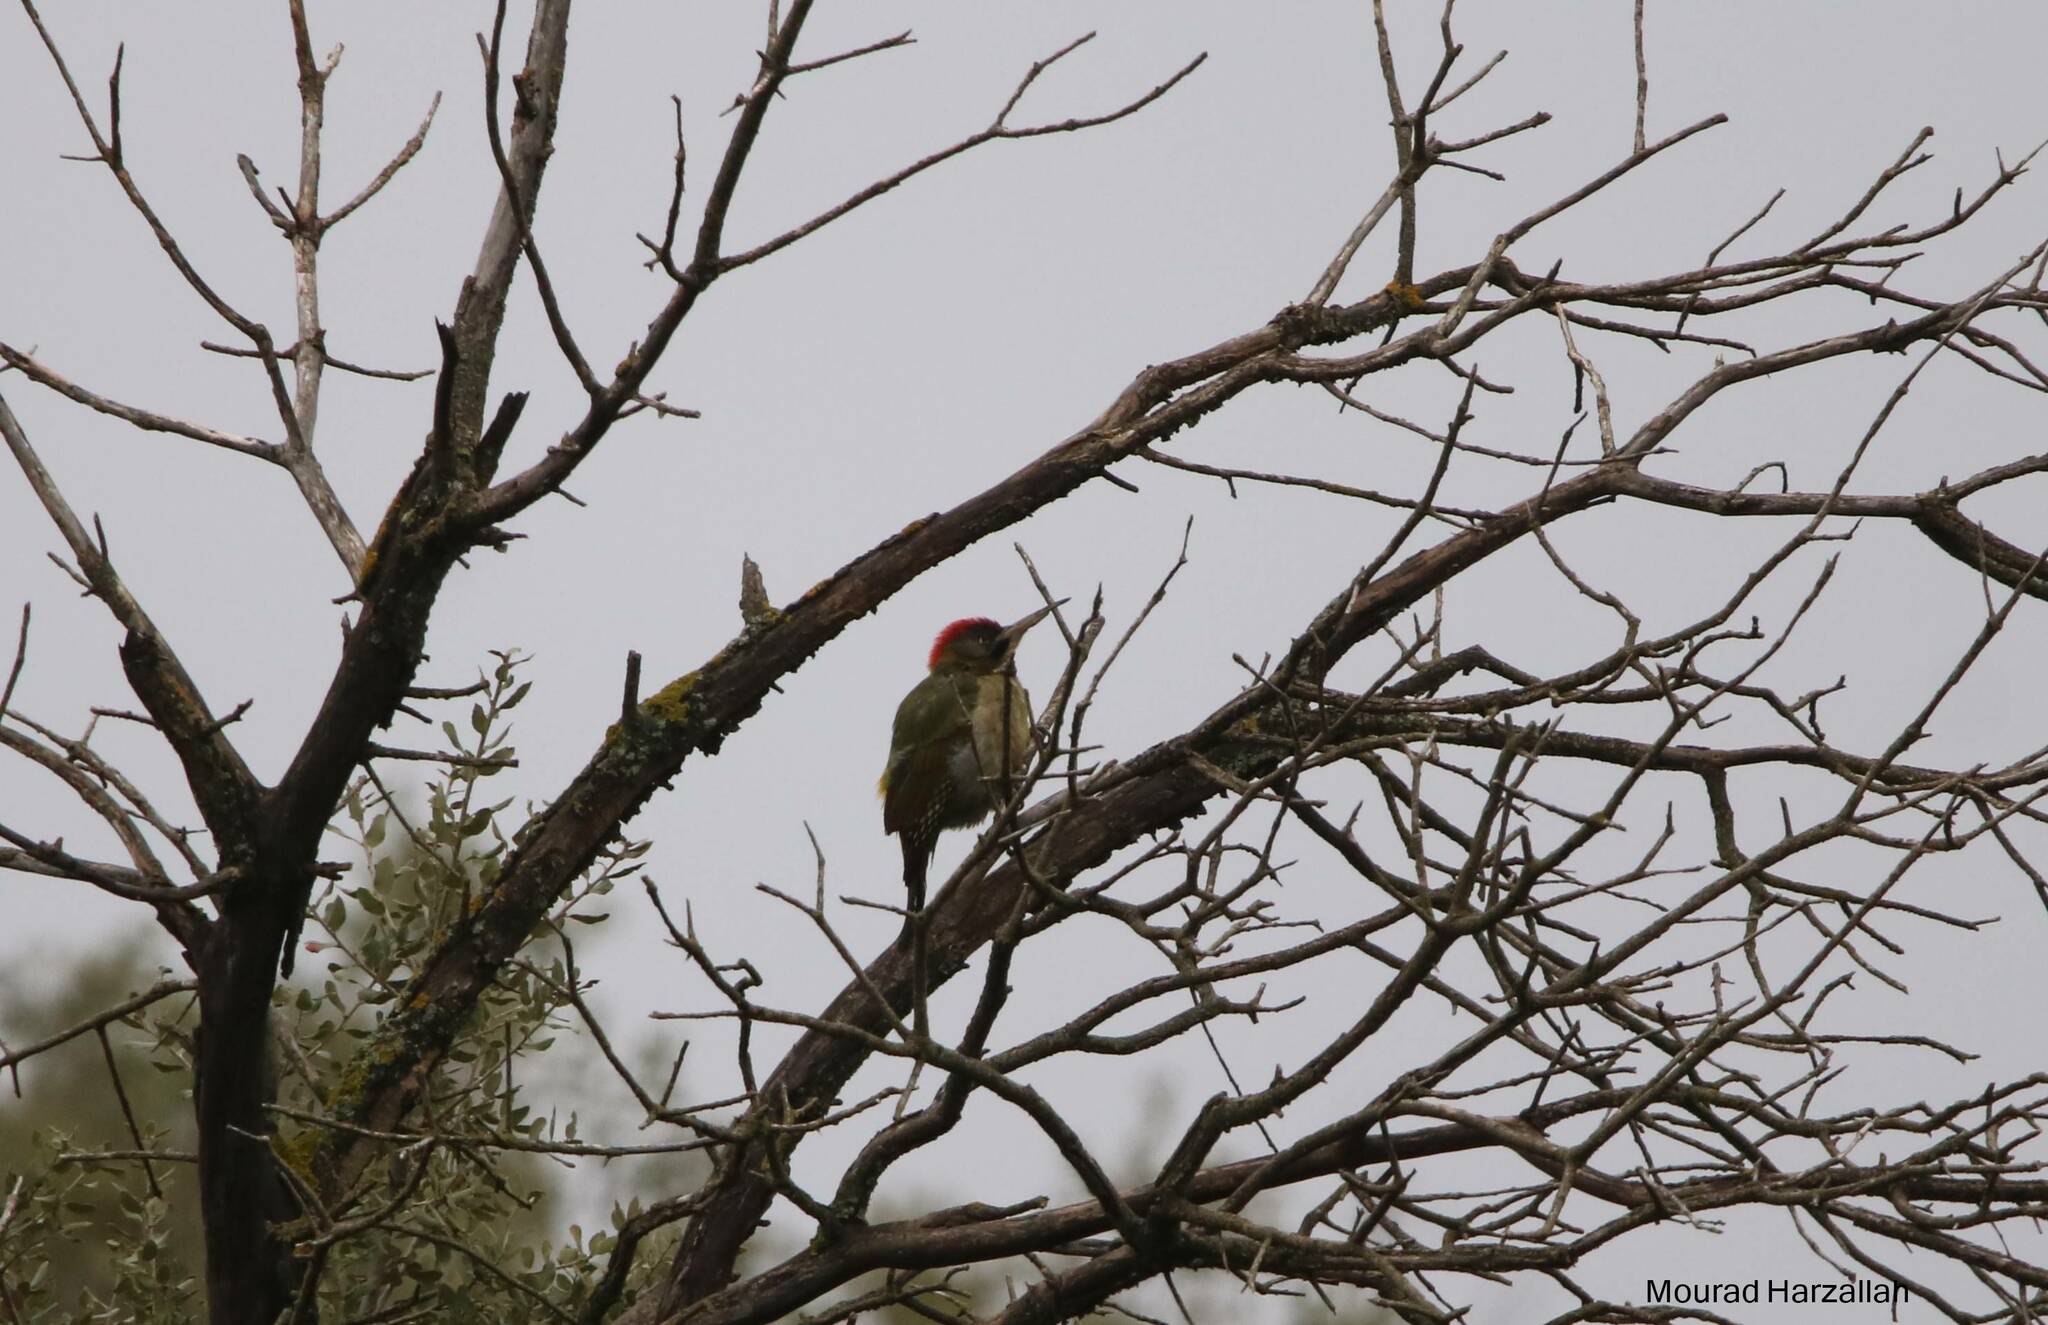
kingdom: Animalia
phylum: Chordata
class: Aves
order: Piciformes
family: Picidae
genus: Picus
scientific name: Picus vaillantii
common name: Levaillant's woodpecker
